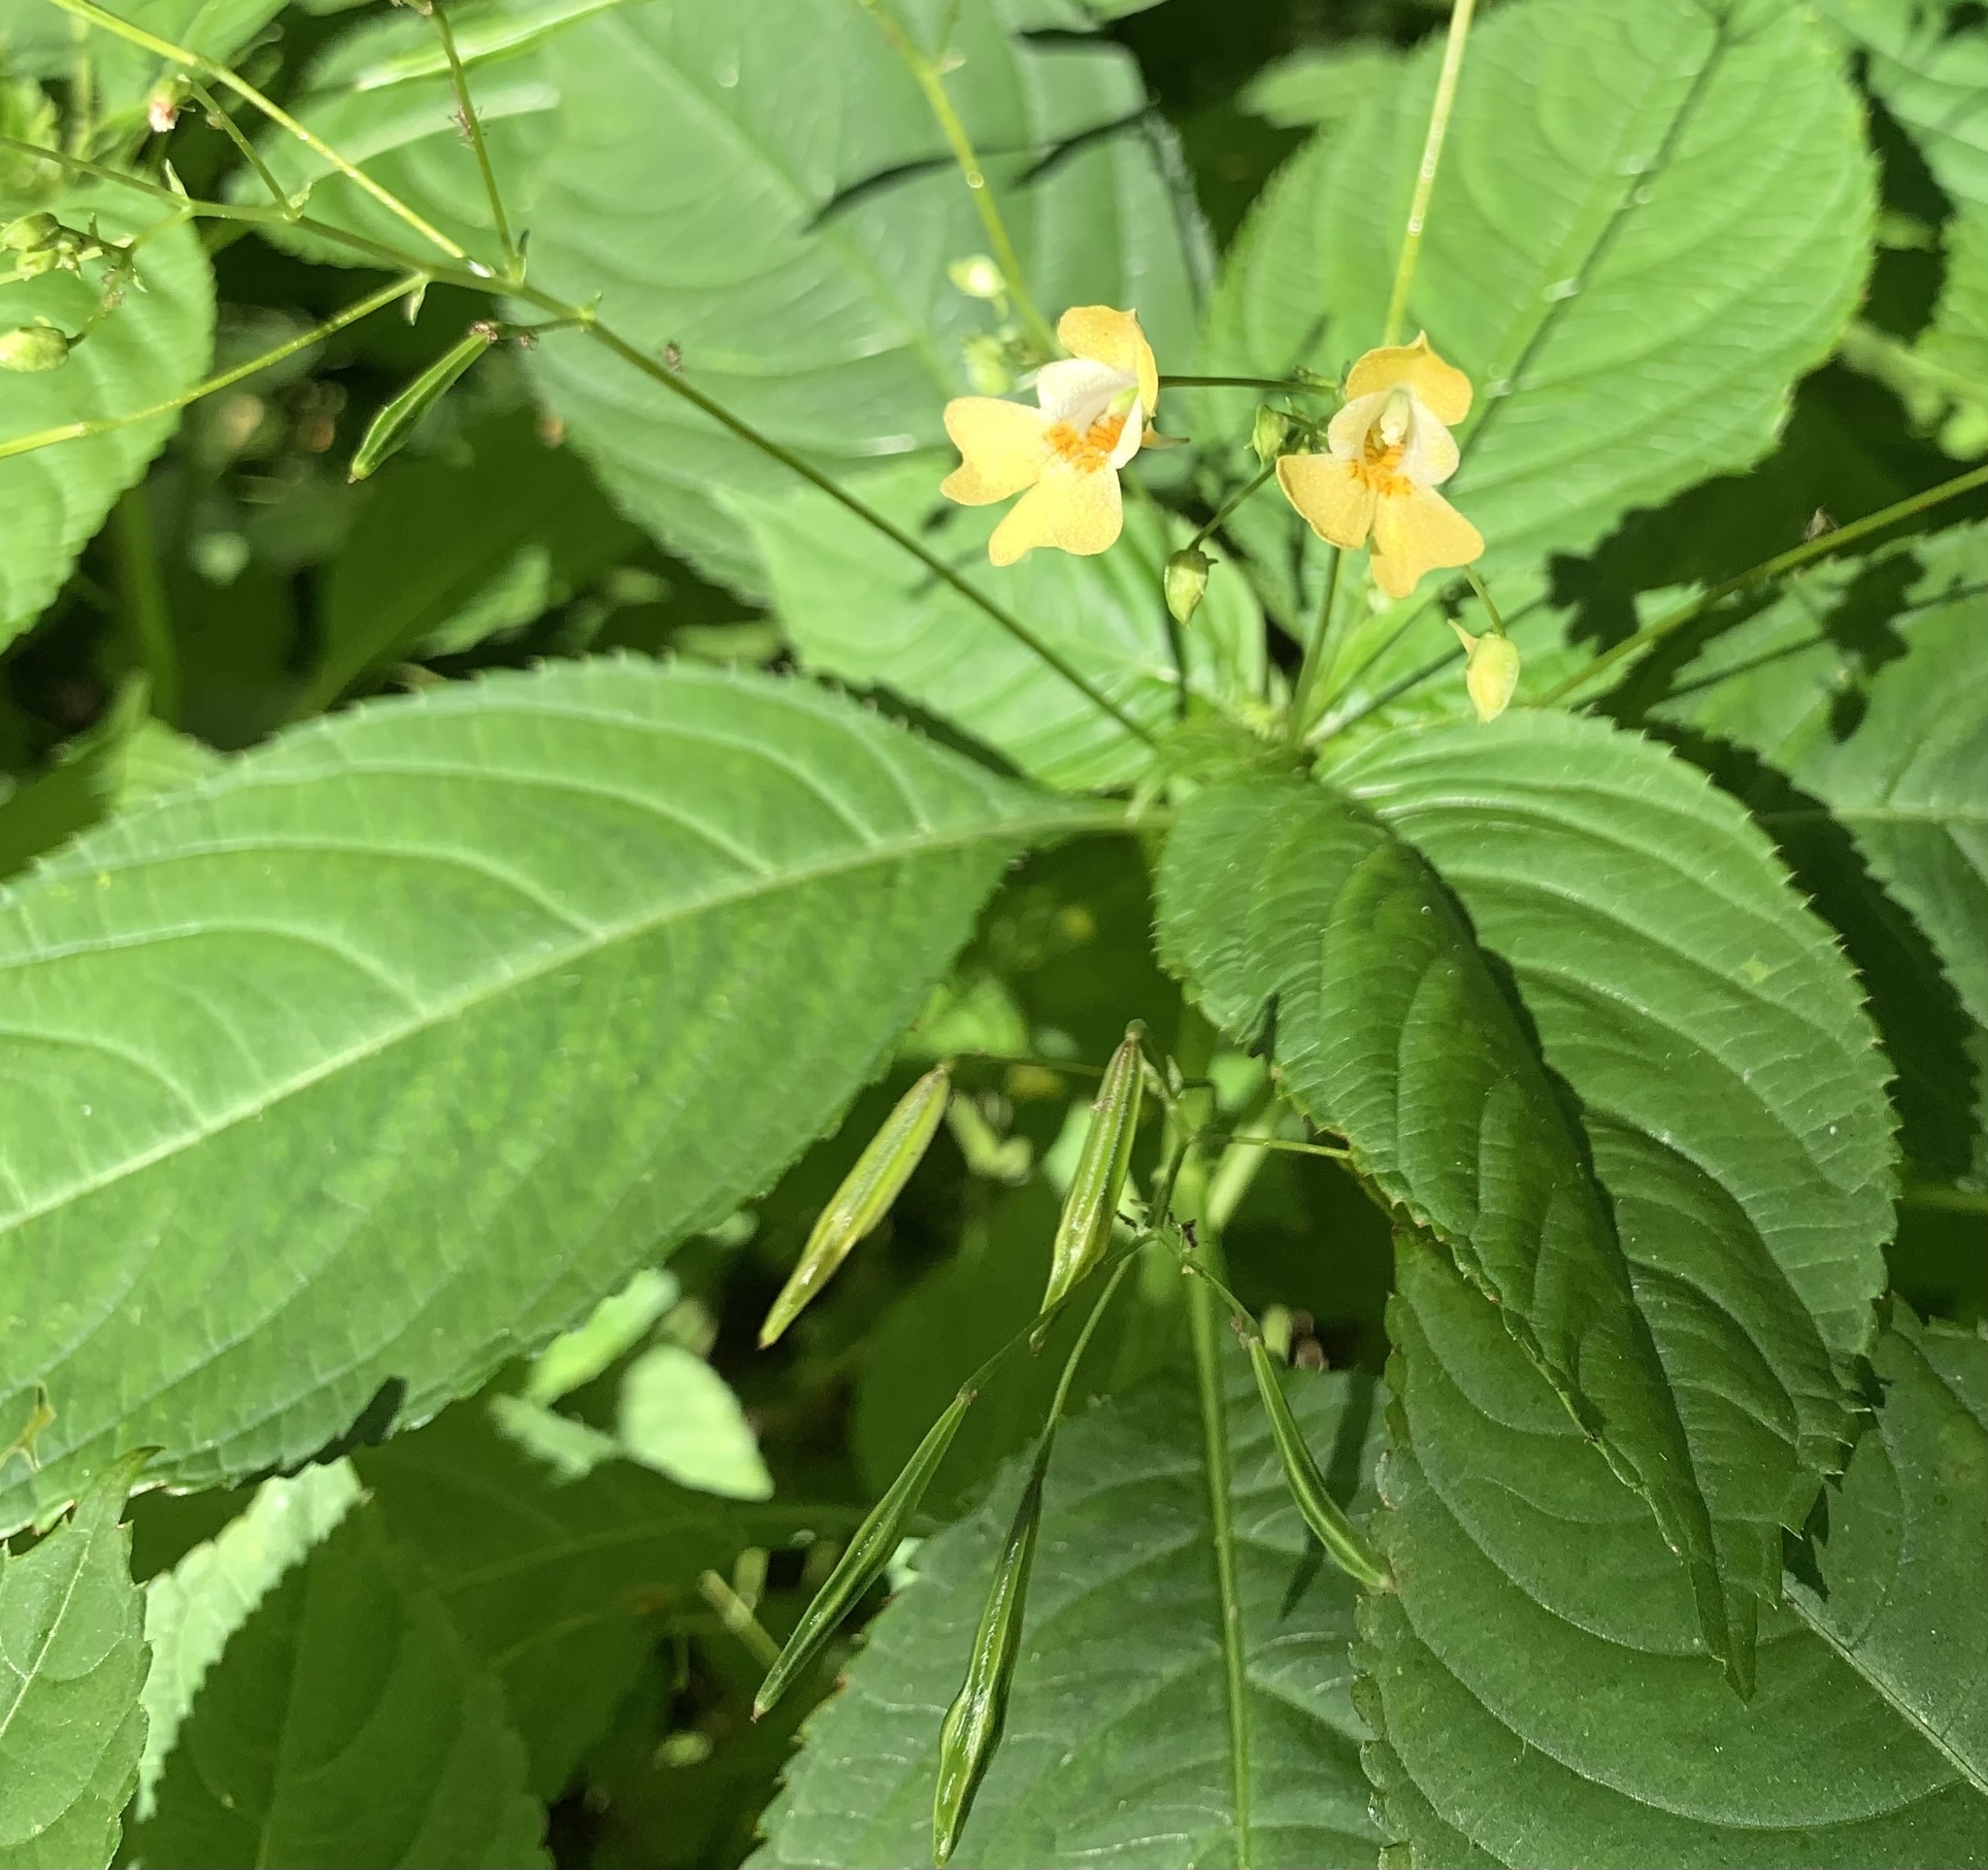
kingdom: Plantae
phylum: Tracheophyta
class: Magnoliopsida
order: Ericales
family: Balsaminaceae
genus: Impatiens
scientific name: Impatiens parviflora
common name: Small balsam
